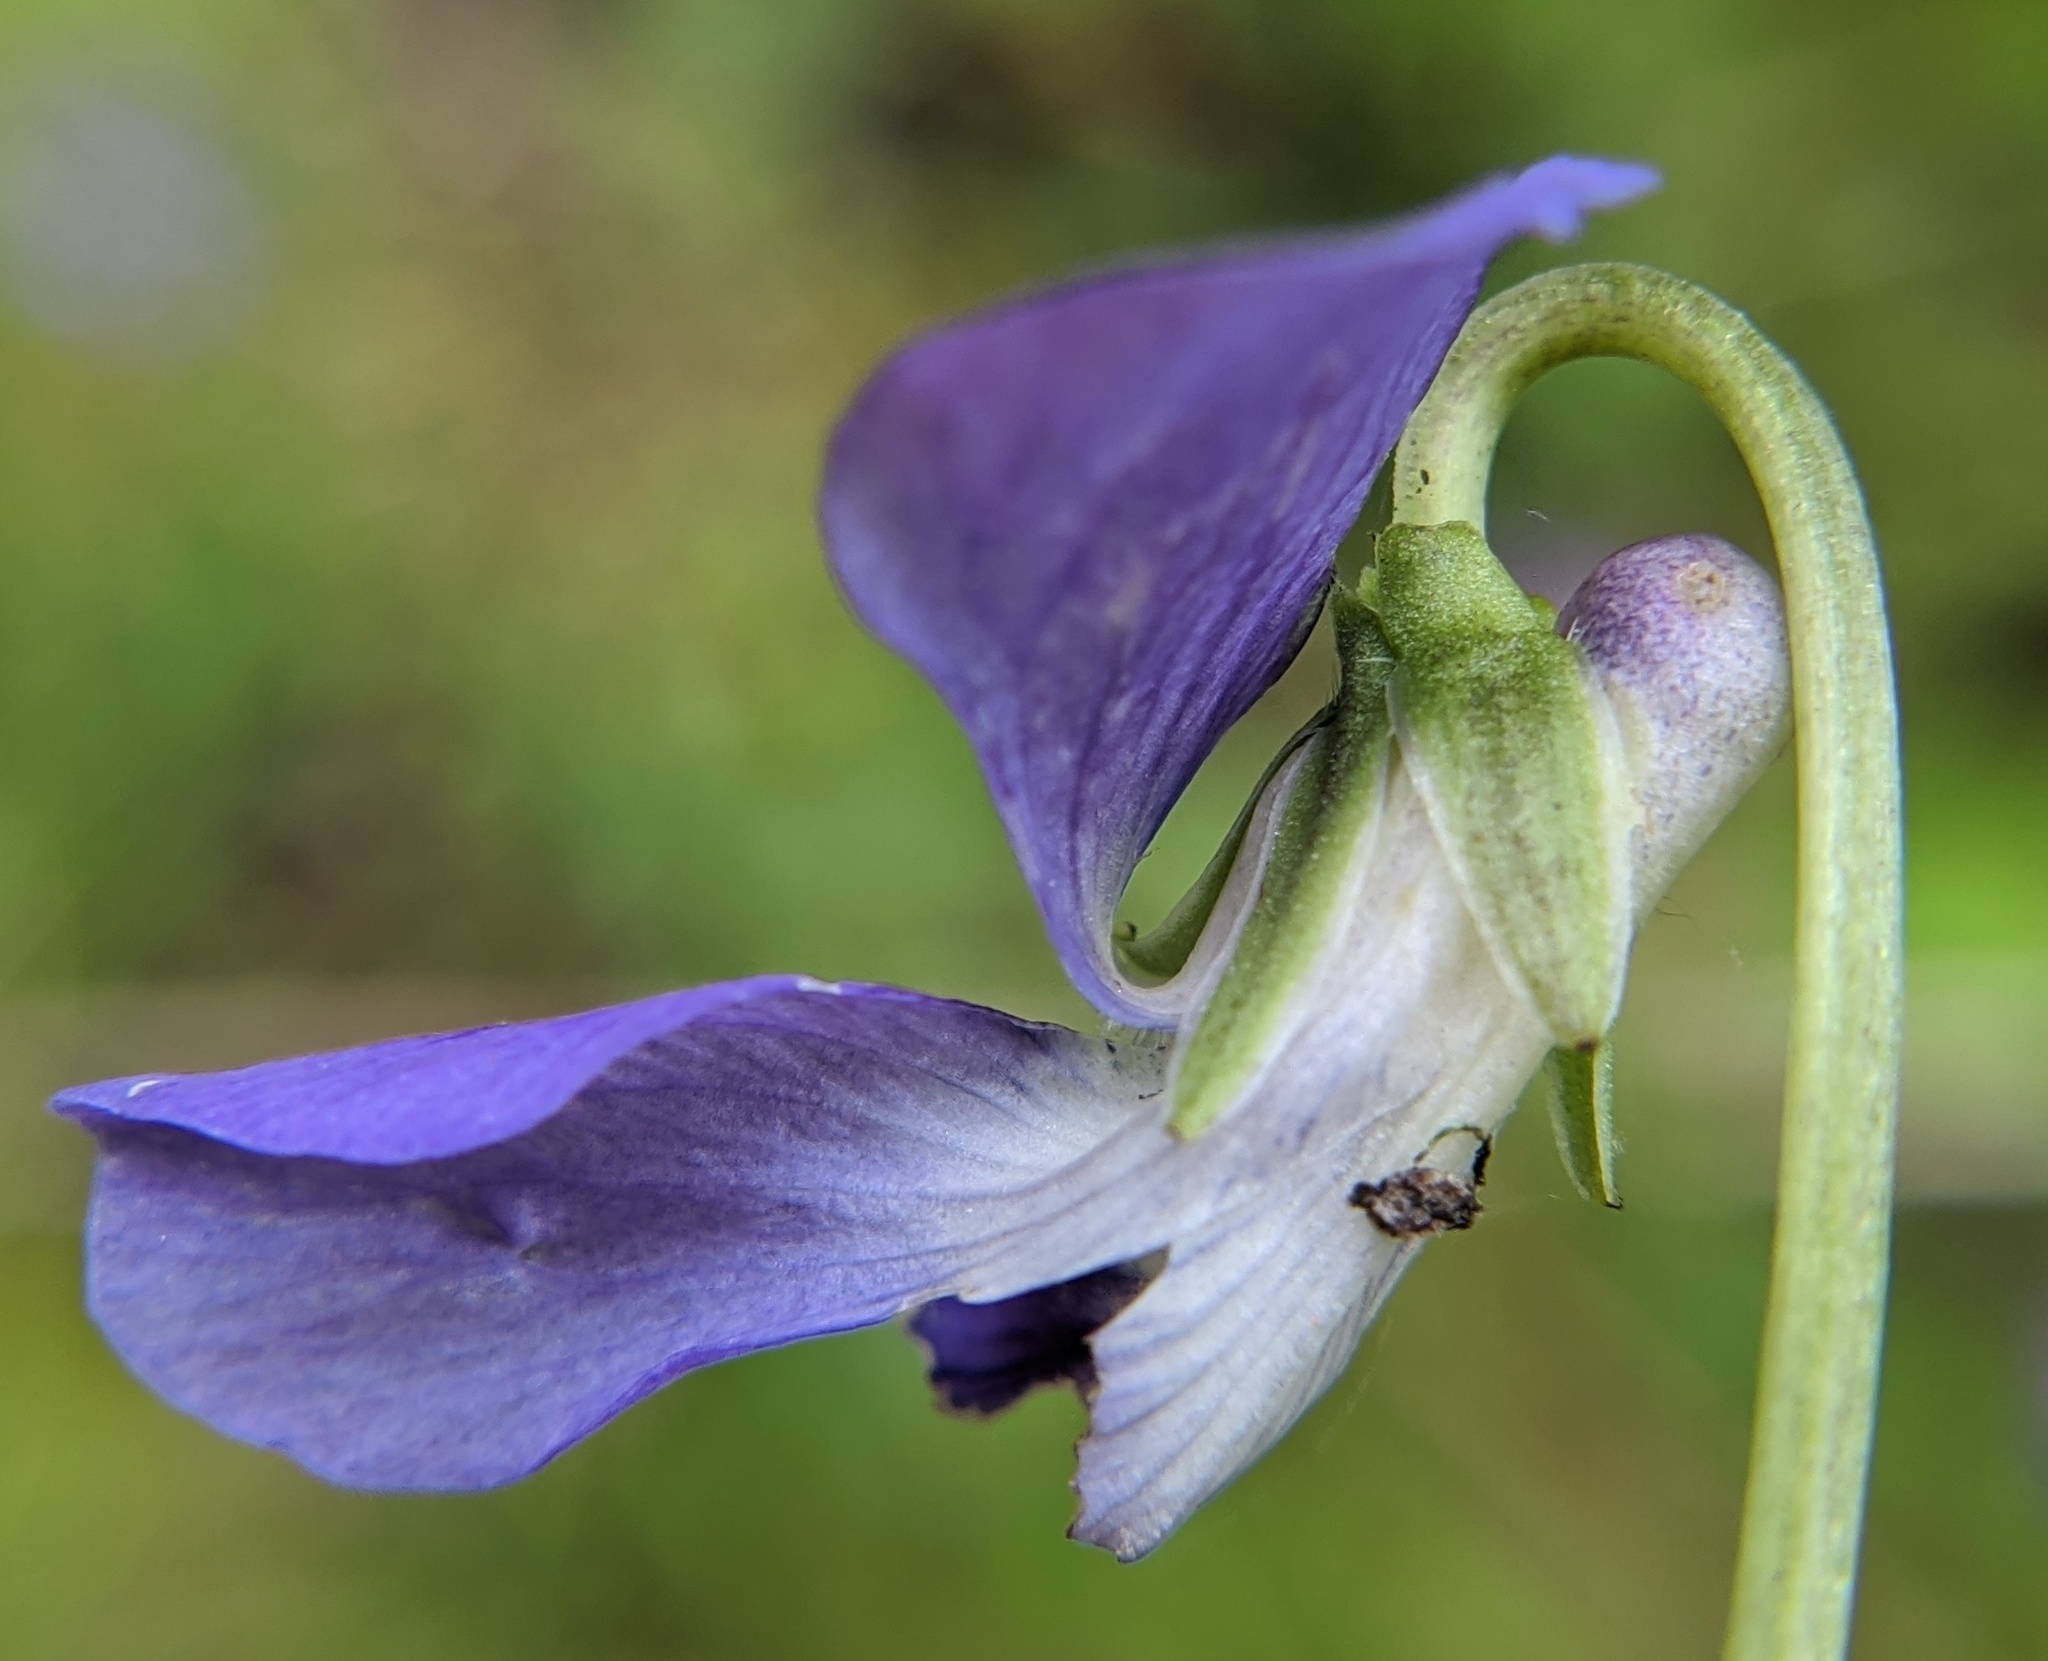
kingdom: Plantae
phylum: Tracheophyta
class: Magnoliopsida
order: Malpighiales
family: Violaceae
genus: Viola
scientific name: Viola cucullata
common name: Marsh blue violet
